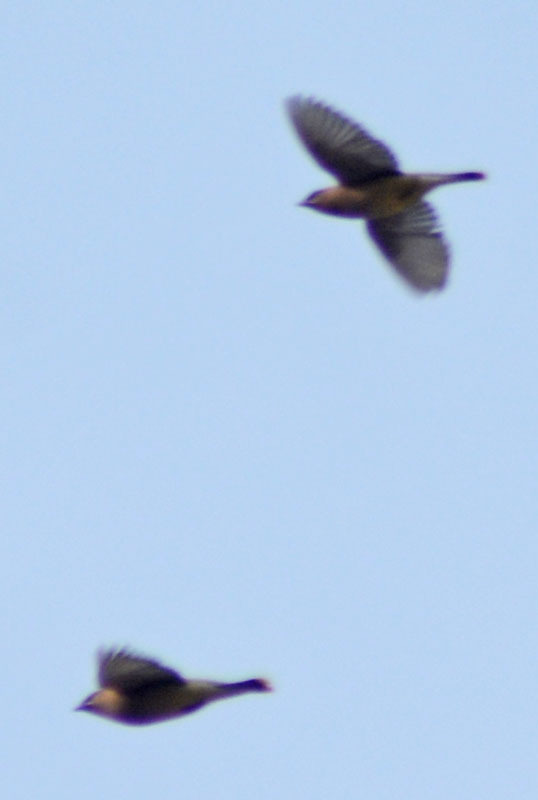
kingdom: Animalia
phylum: Chordata
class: Aves
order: Passeriformes
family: Bombycillidae
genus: Bombycilla
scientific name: Bombycilla cedrorum
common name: Cedar waxwing
